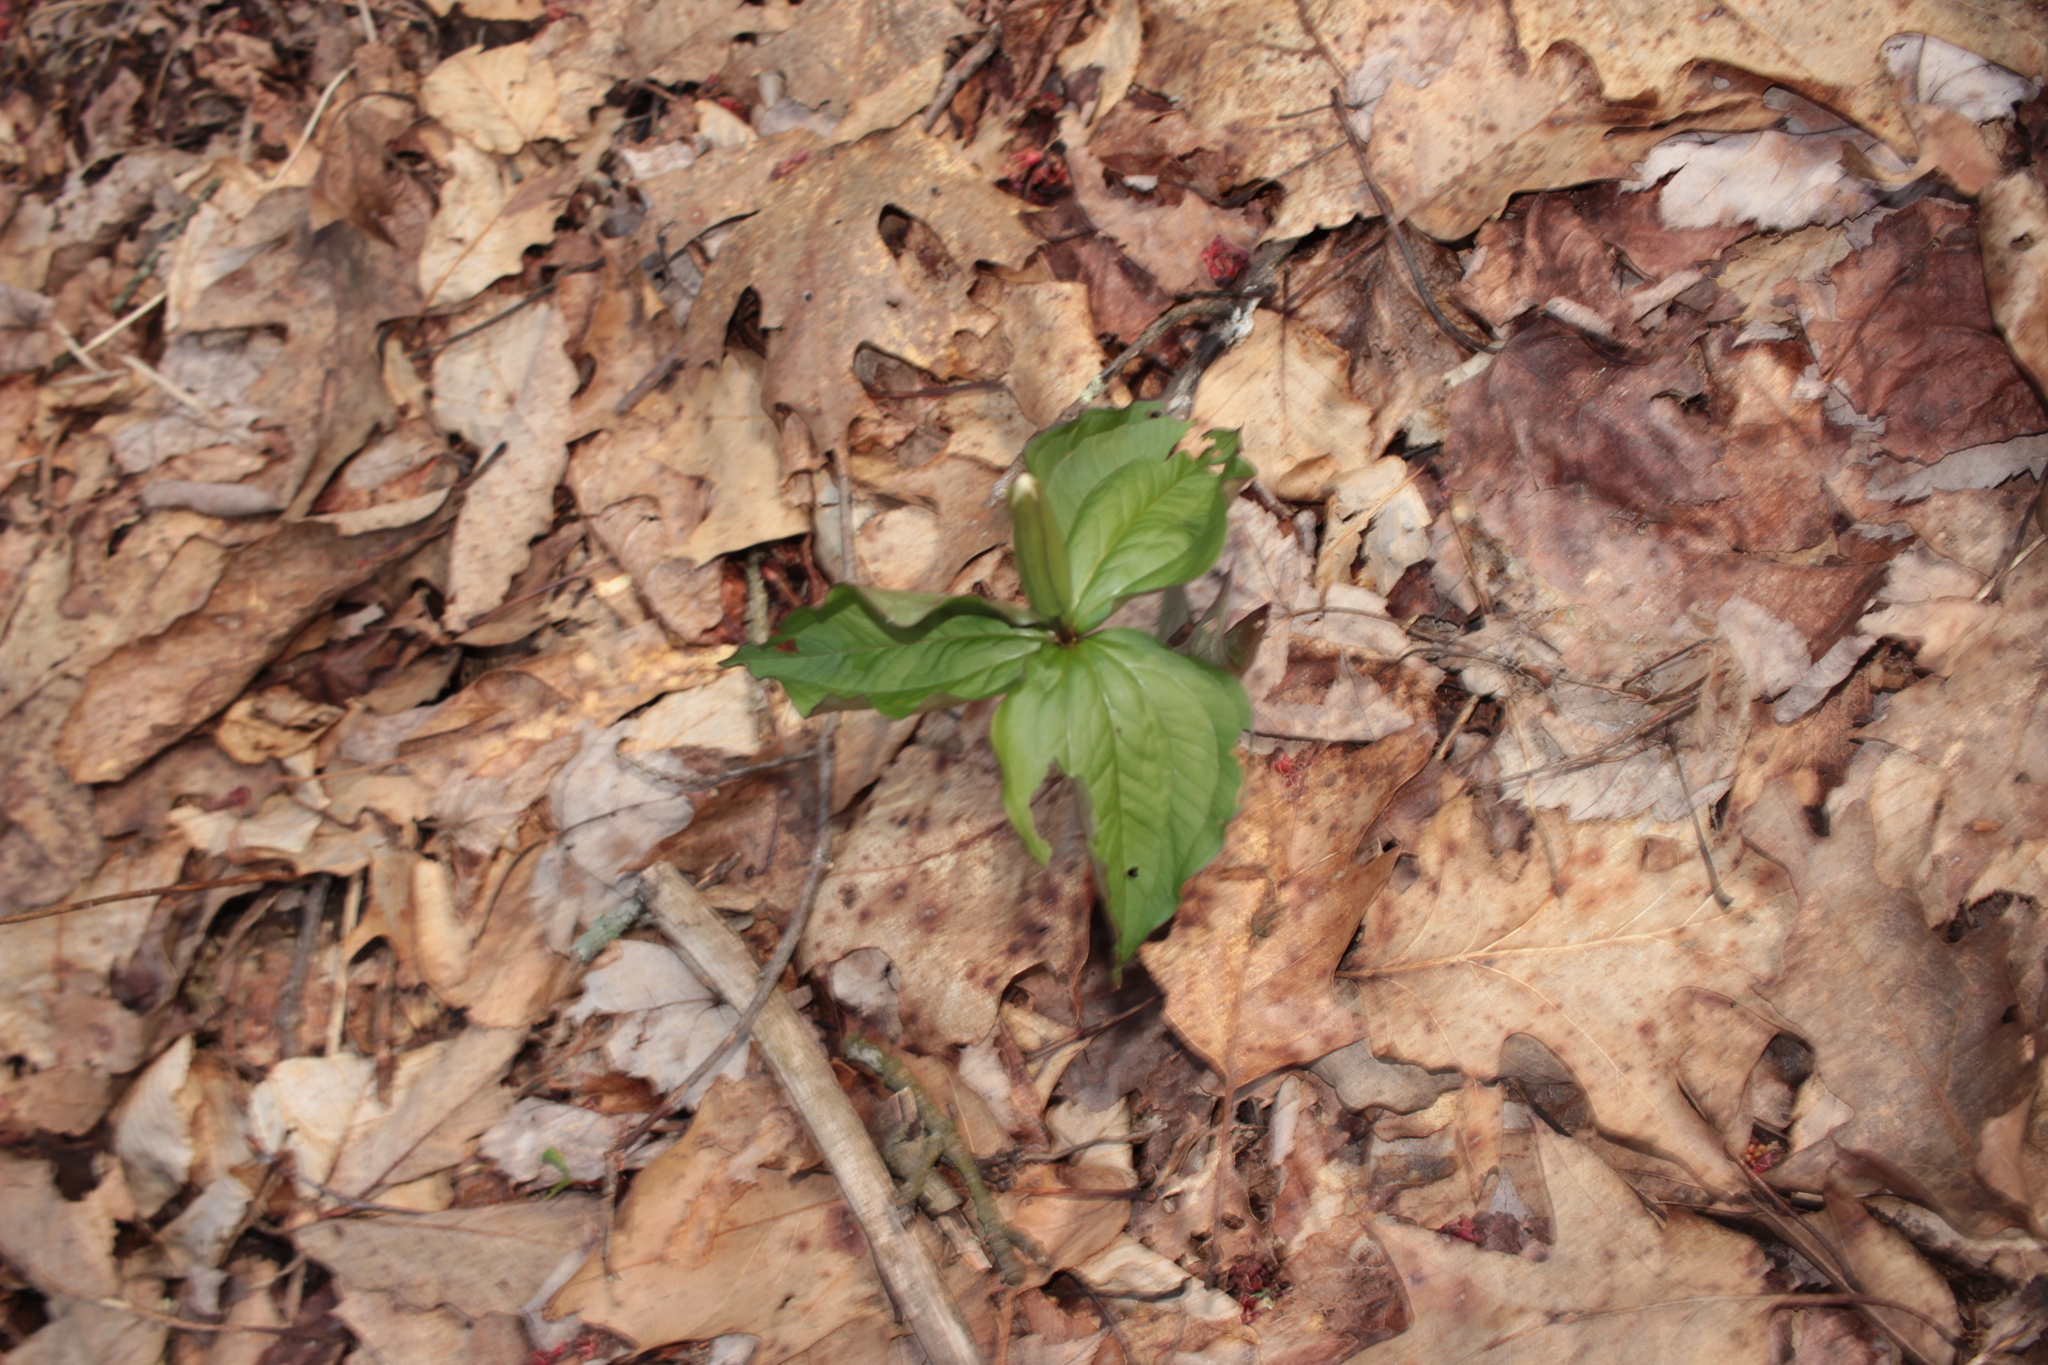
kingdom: Plantae
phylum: Tracheophyta
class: Liliopsida
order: Liliales
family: Melanthiaceae
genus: Trillium
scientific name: Trillium grandiflorum
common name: Great white trillium
